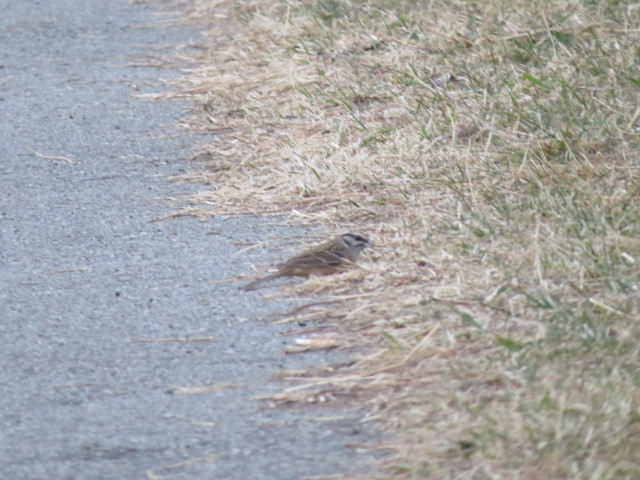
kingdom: Animalia
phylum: Chordata
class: Aves
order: Passeriformes
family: Emberizidae
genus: Emberiza
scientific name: Emberiza cia
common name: Rock bunting
